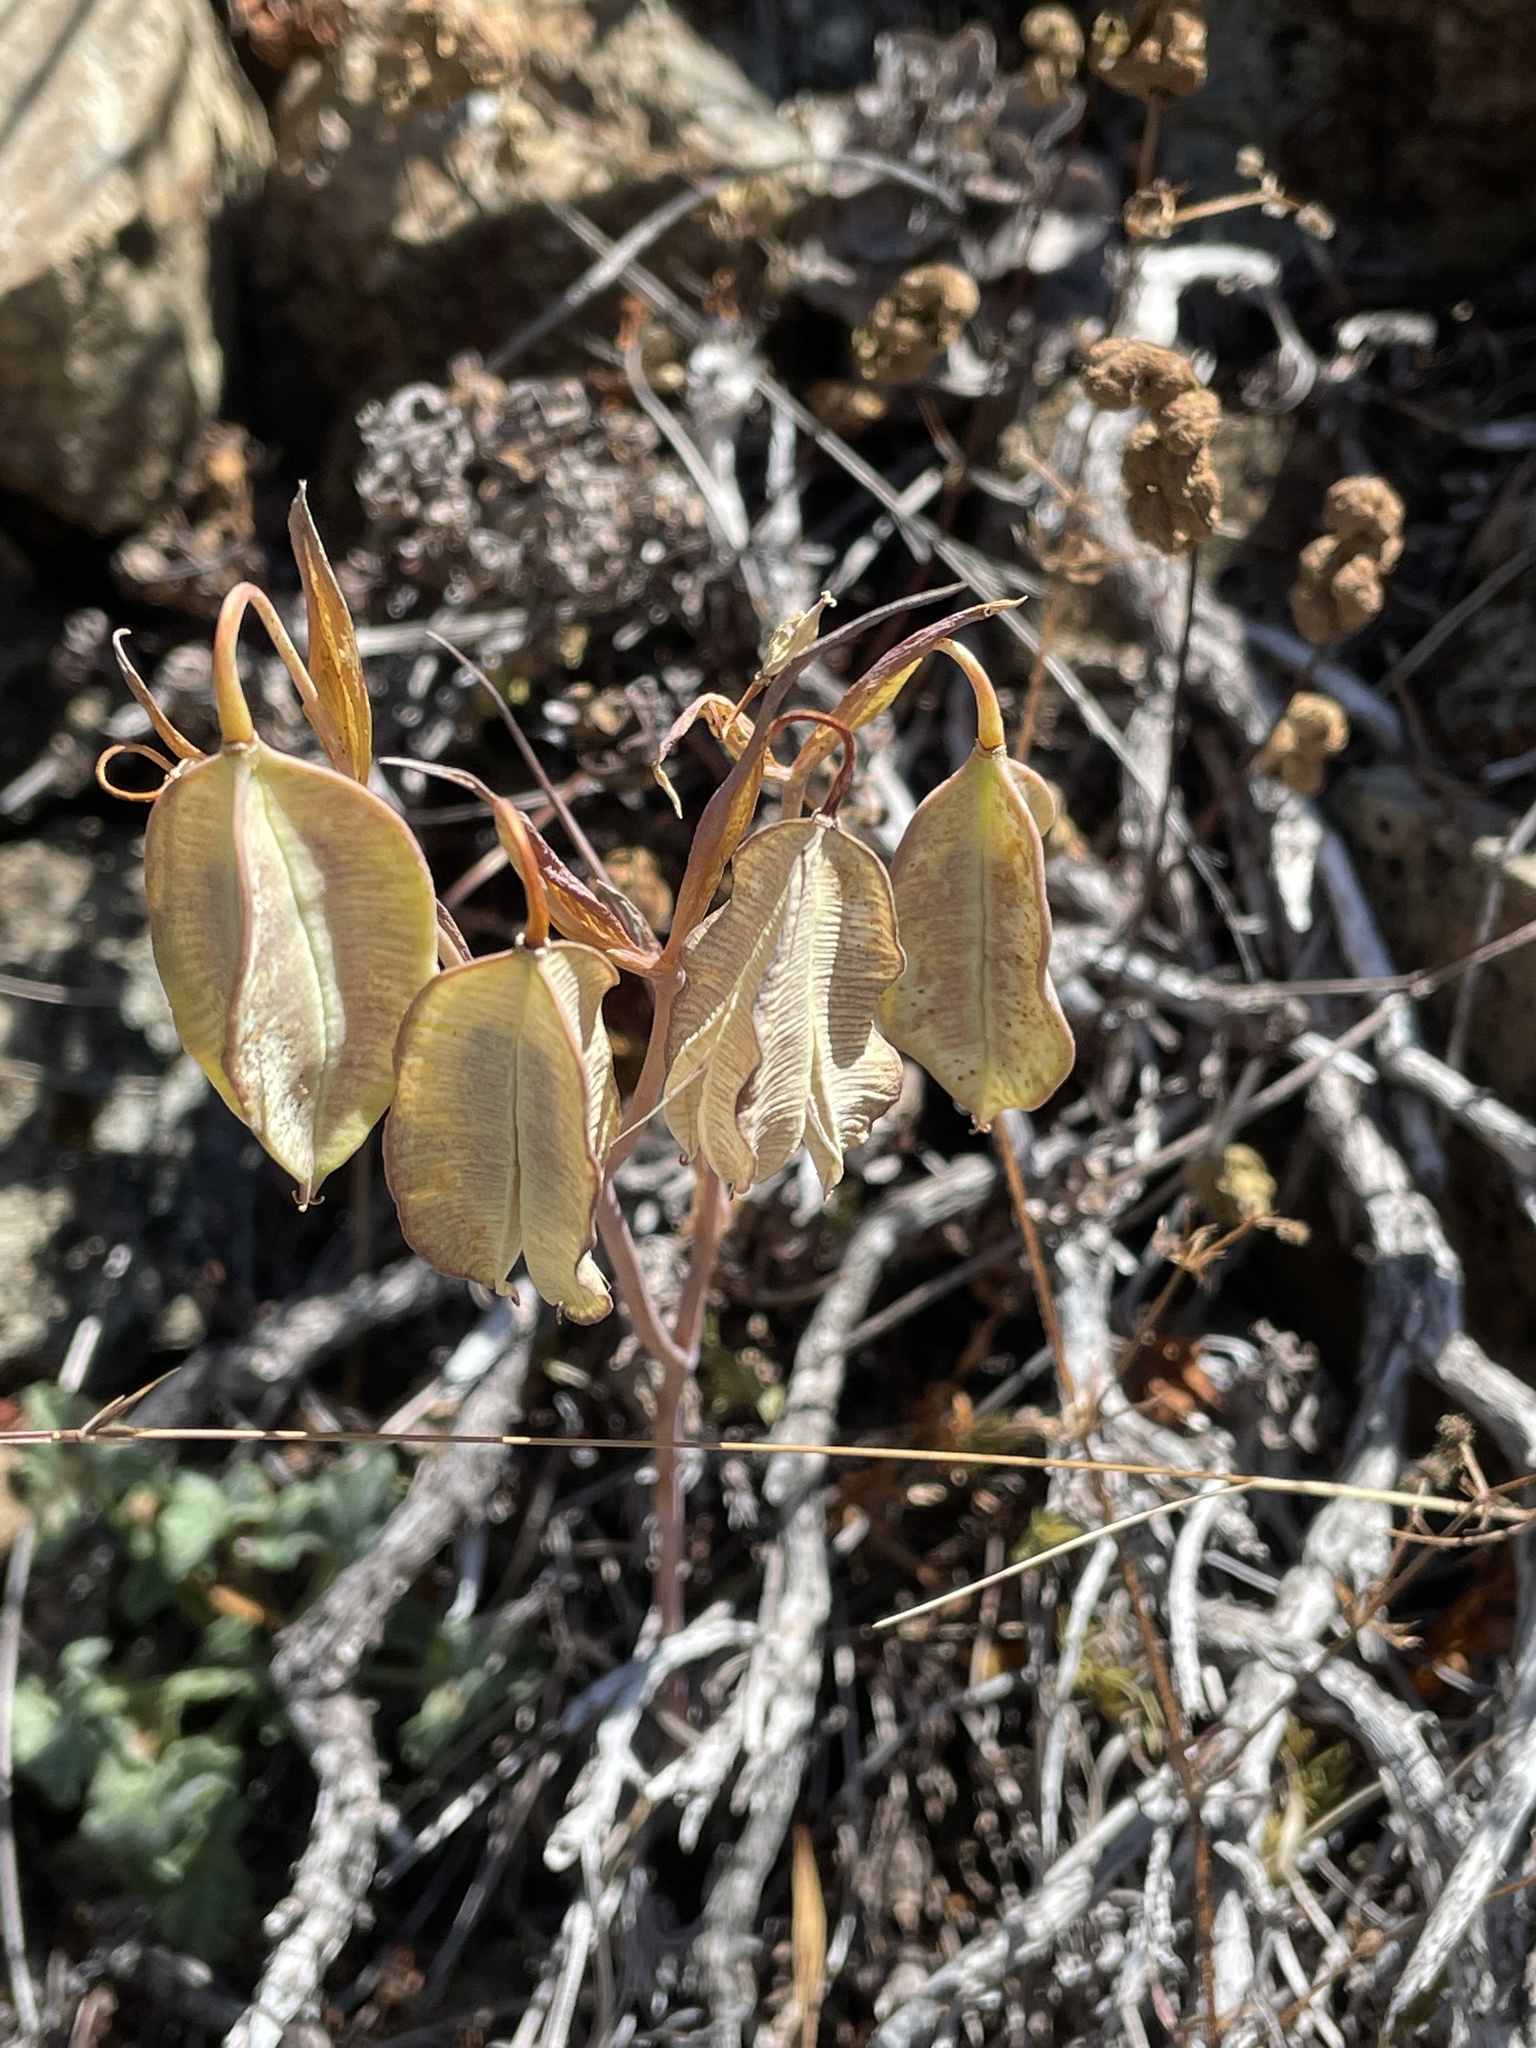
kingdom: Plantae
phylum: Tracheophyta
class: Liliopsida
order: Liliales
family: Liliaceae
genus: Calochortus
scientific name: Calochortus amabilis
